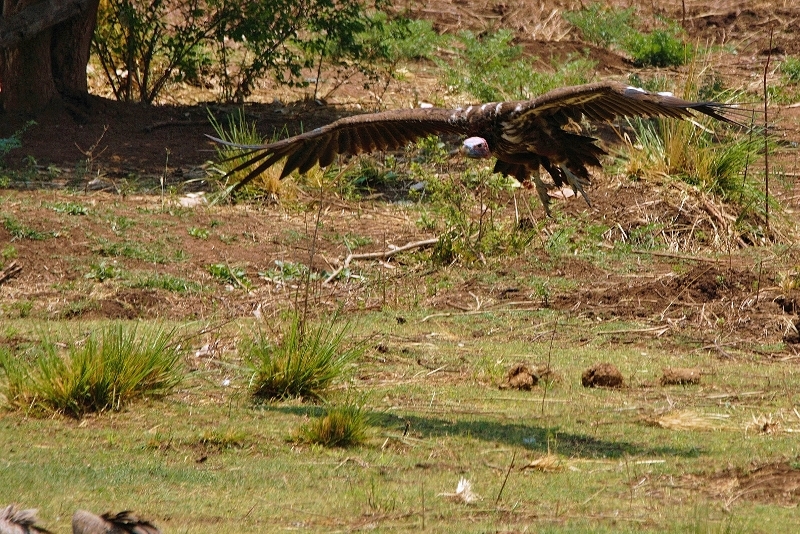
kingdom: Animalia
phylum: Chordata
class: Aves
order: Accipitriformes
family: Accipitridae
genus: Torgos
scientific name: Torgos tracheliotos
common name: Lappet-faced vulture
